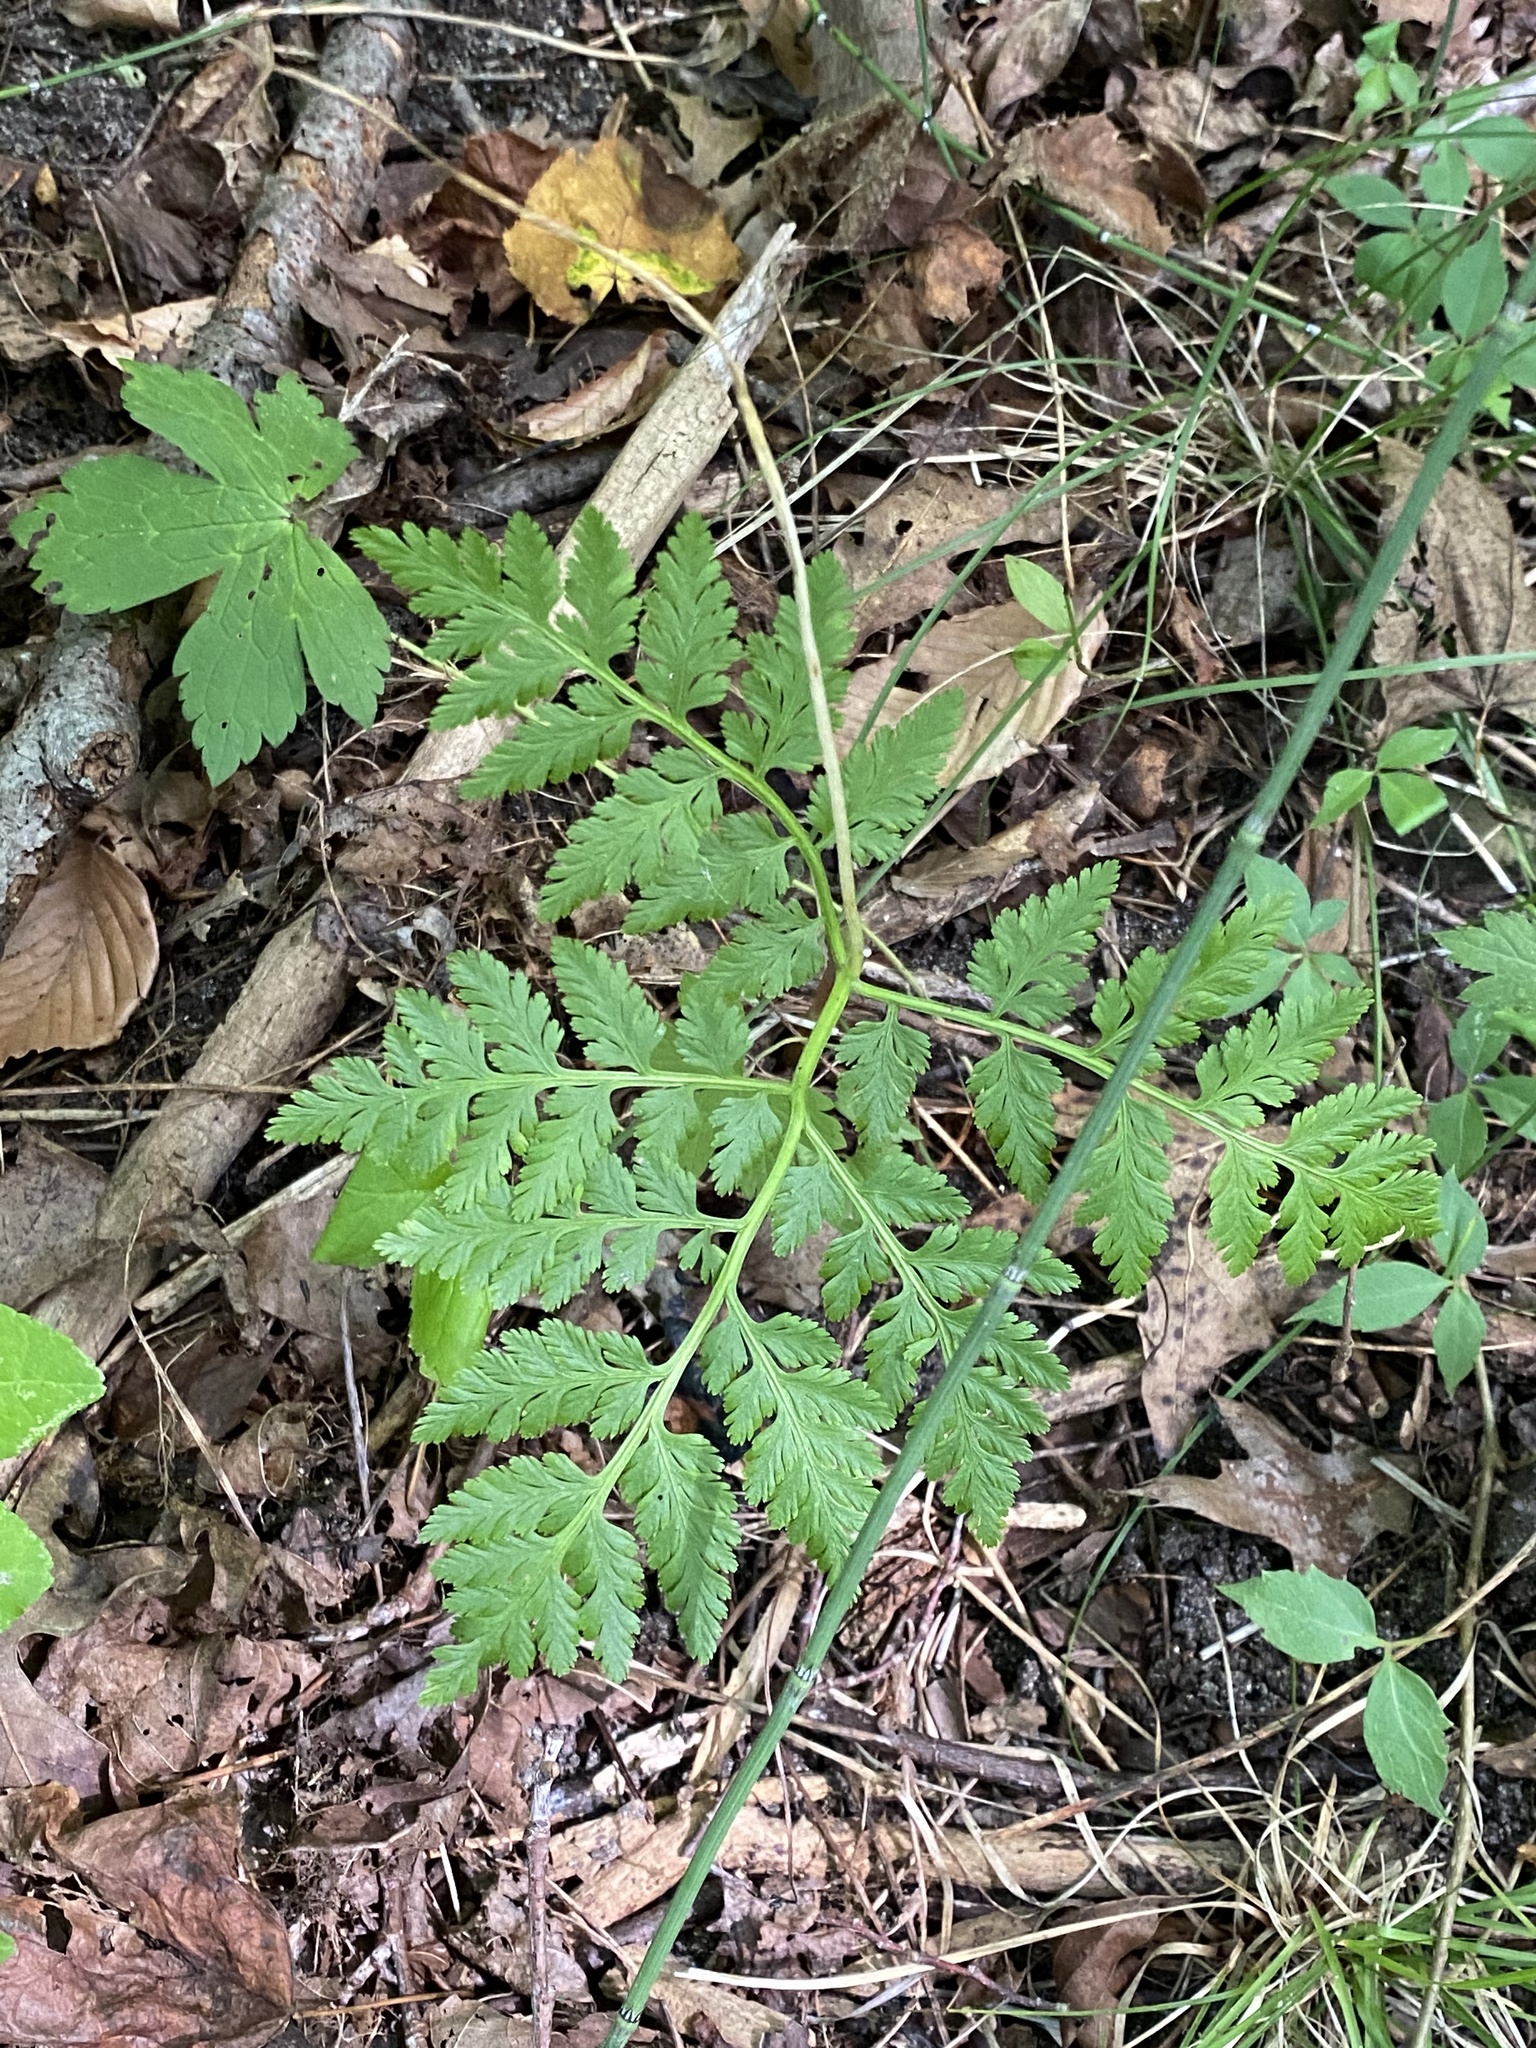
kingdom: Plantae
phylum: Tracheophyta
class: Polypodiopsida
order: Ophioglossales
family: Ophioglossaceae
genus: Botrypus
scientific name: Botrypus virginianus
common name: Common grapefern
